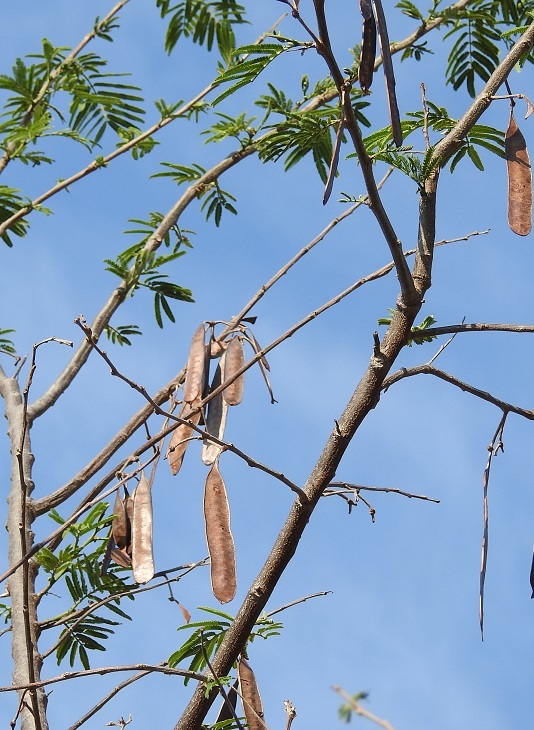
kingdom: Plantae
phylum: Tracheophyta
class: Magnoliopsida
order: Fabales
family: Fabaceae
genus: Leucaena
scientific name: Leucaena diversifolia
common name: Red leucaena
